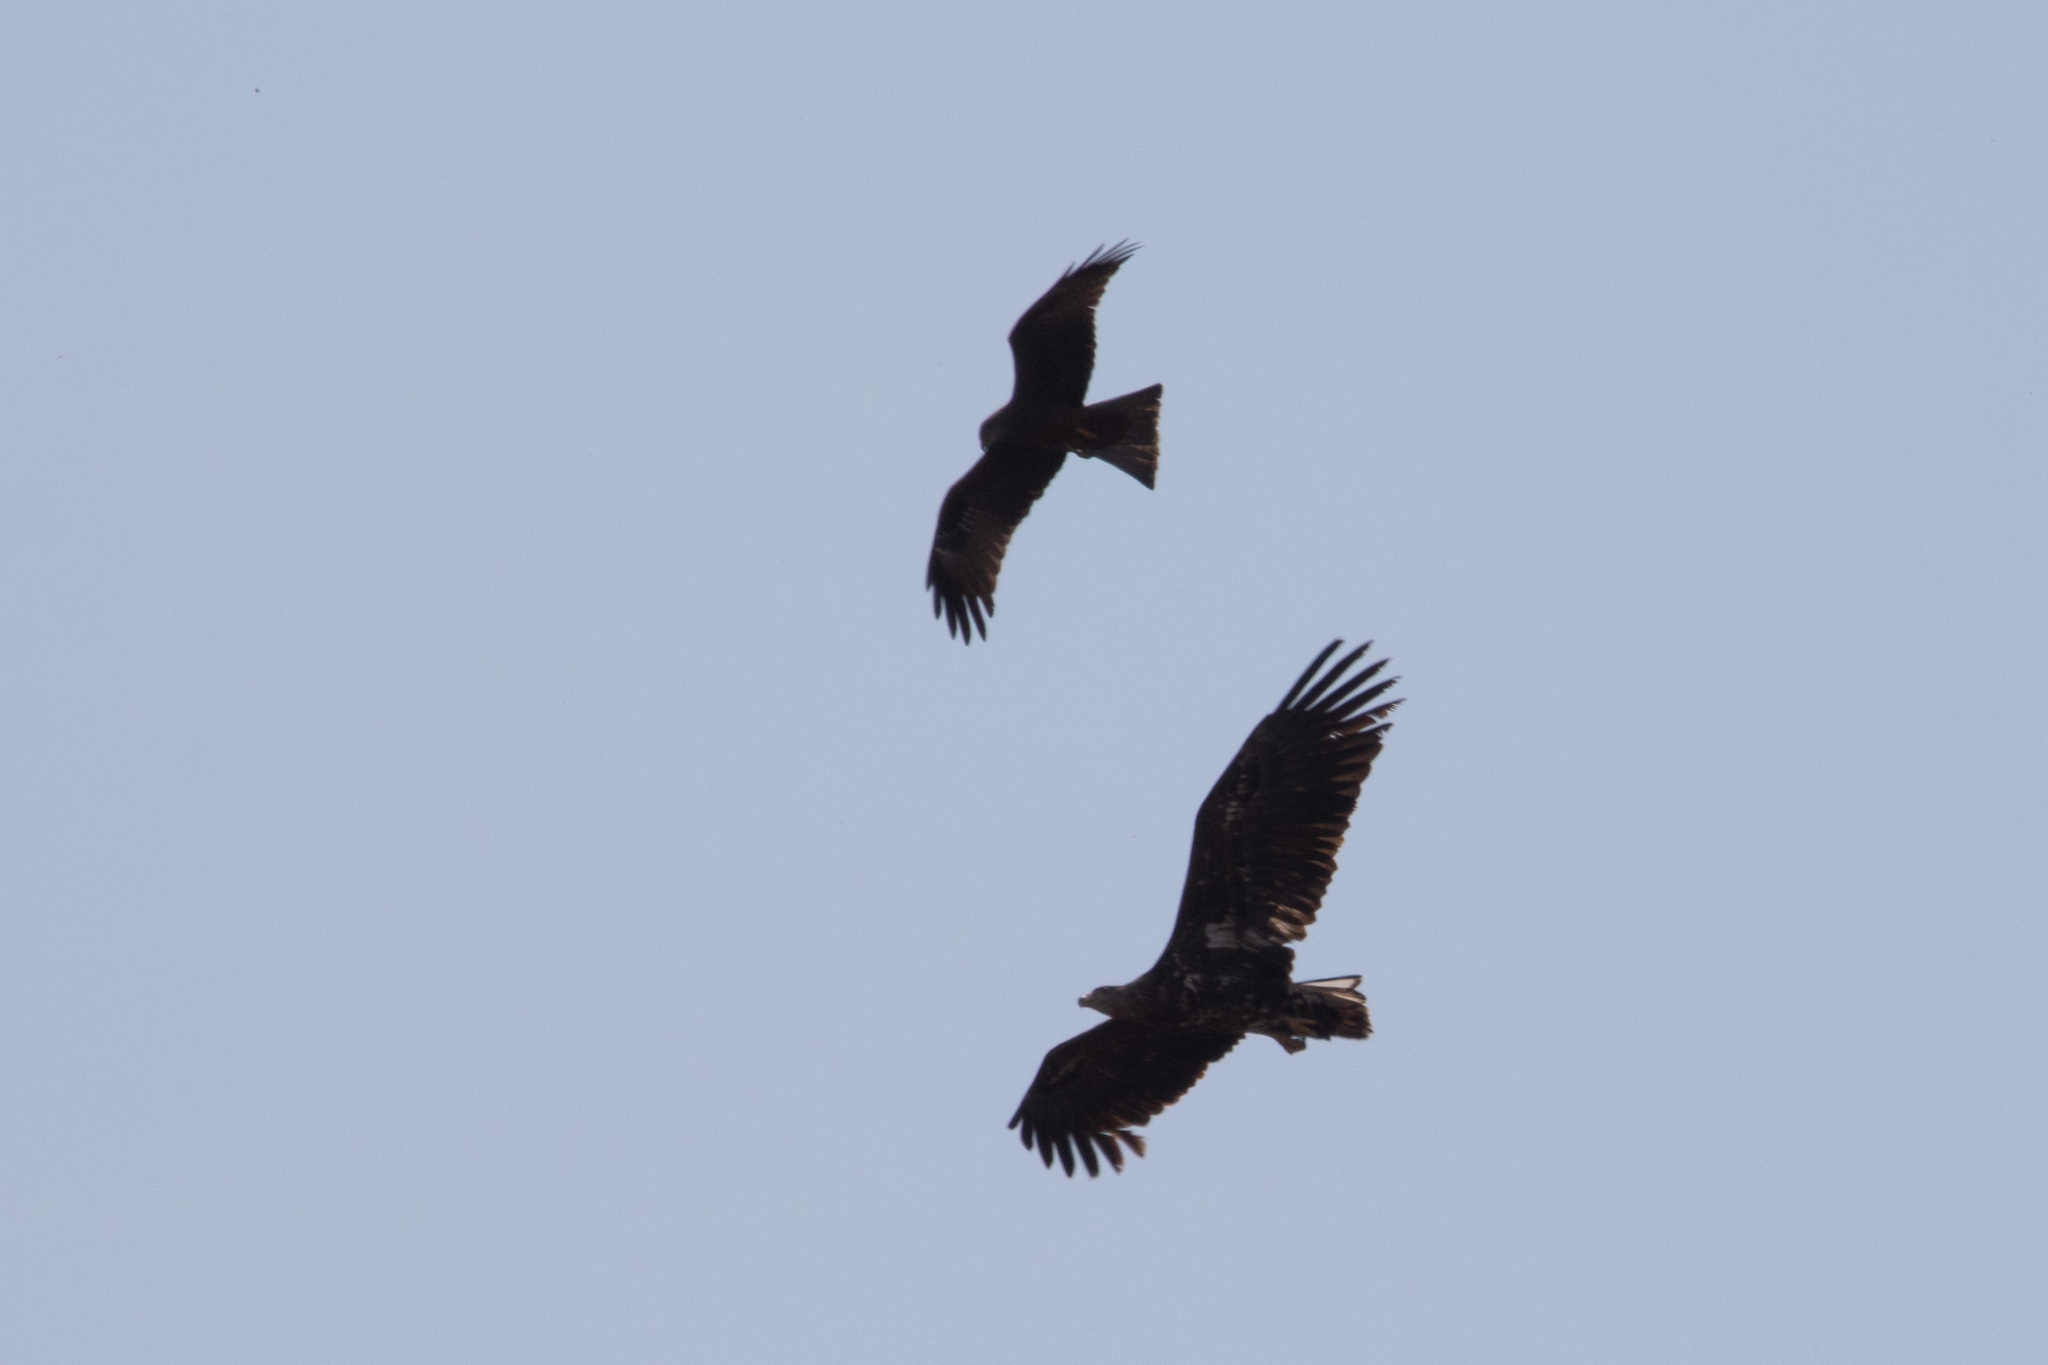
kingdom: Animalia
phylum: Chordata
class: Aves
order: Accipitriformes
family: Accipitridae
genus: Haliaeetus
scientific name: Haliaeetus albicilla
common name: White-tailed eagle
